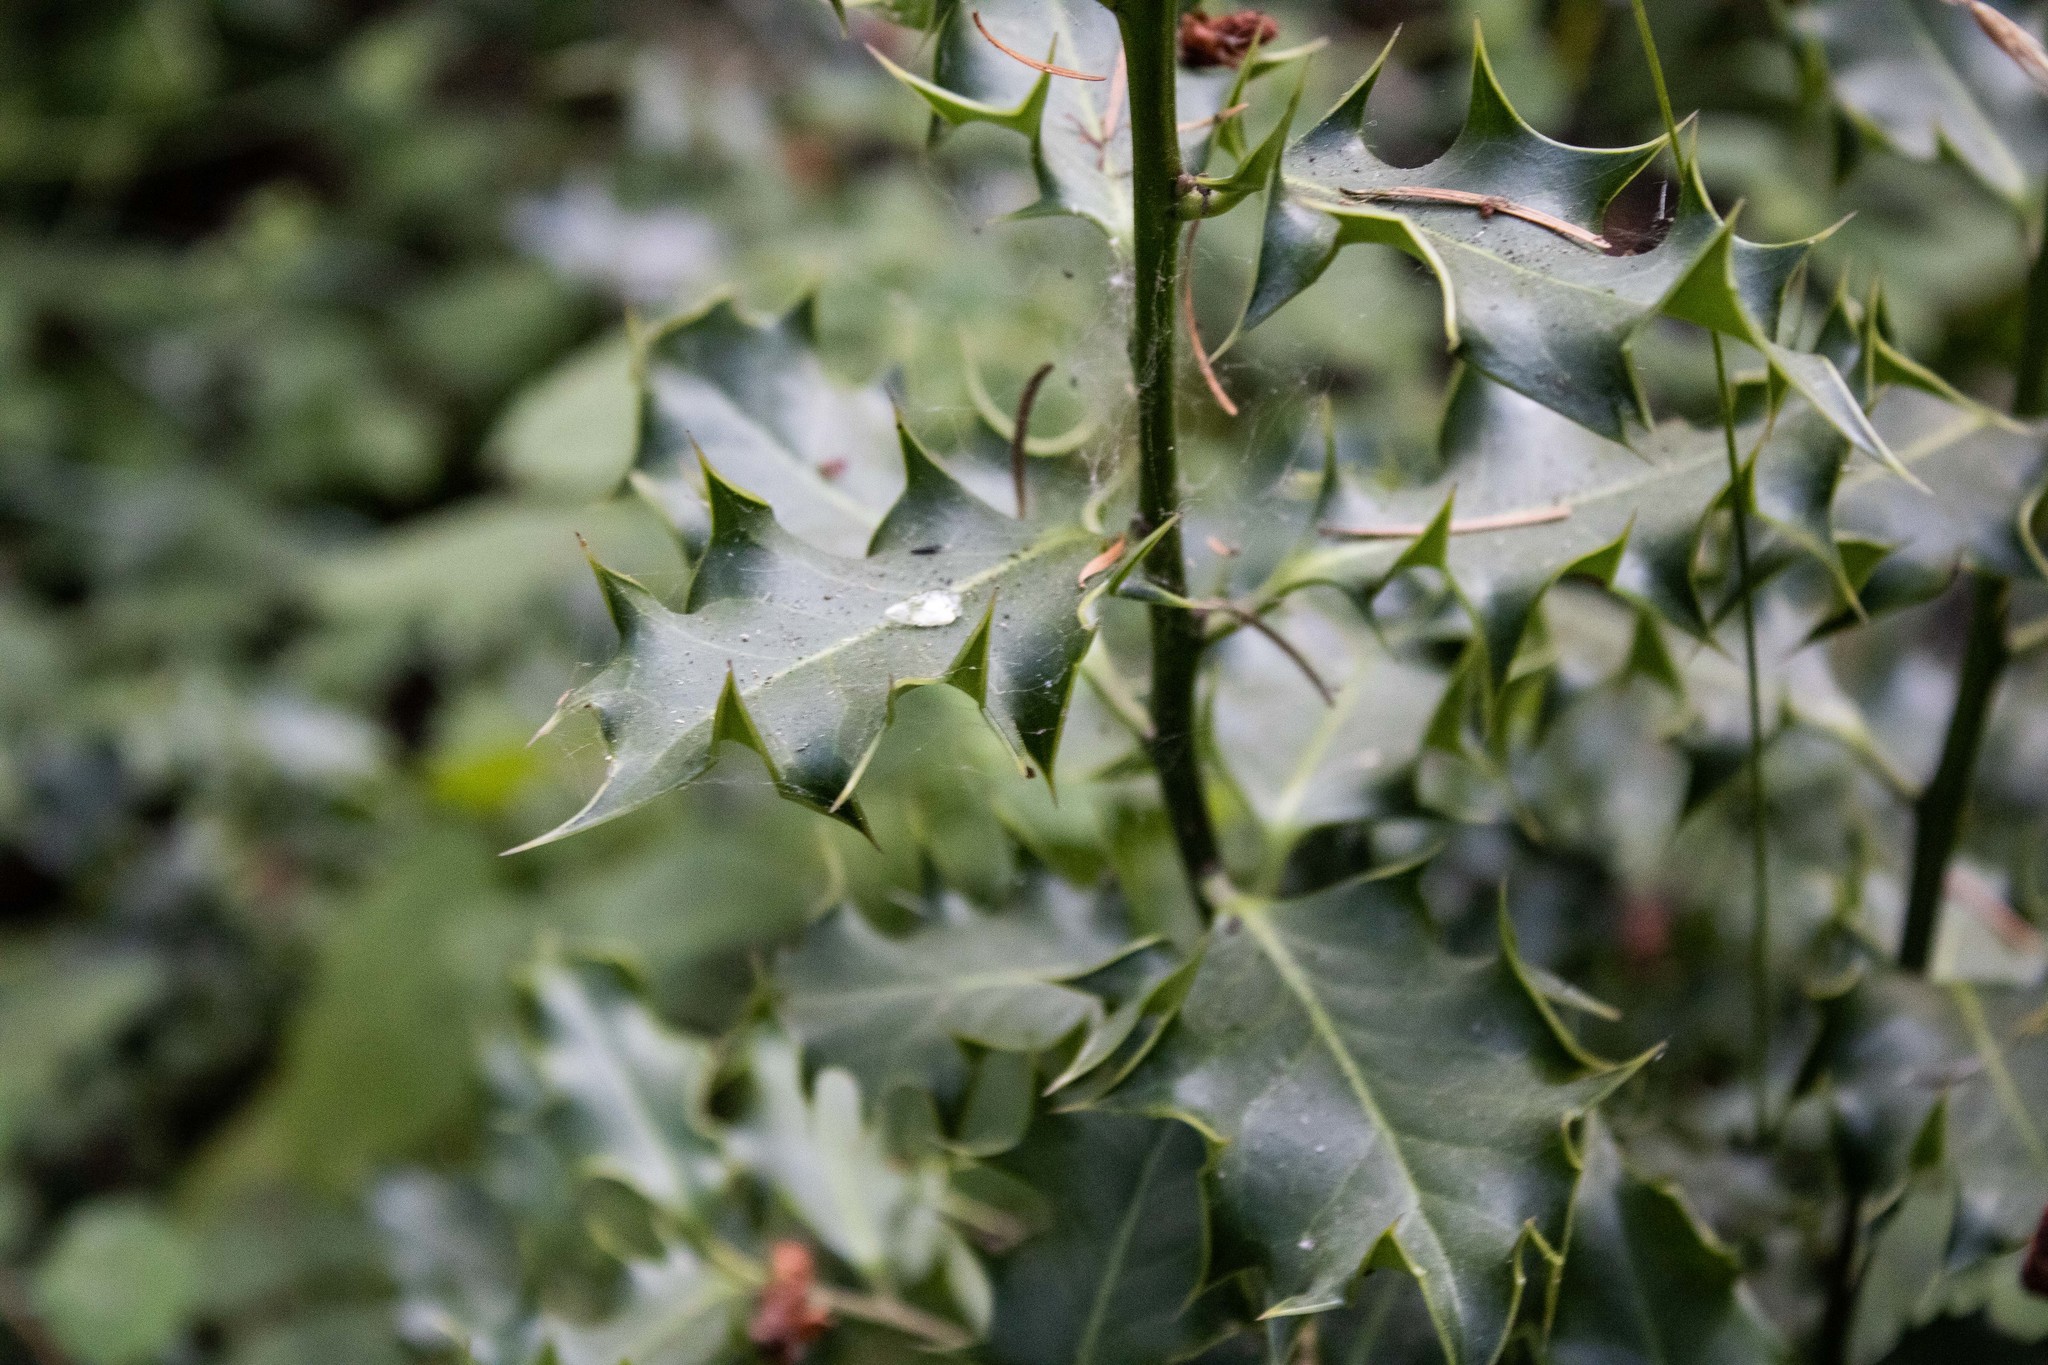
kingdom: Plantae
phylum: Tracheophyta
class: Magnoliopsida
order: Aquifoliales
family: Aquifoliaceae
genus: Ilex
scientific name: Ilex aquifolium
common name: English holly
